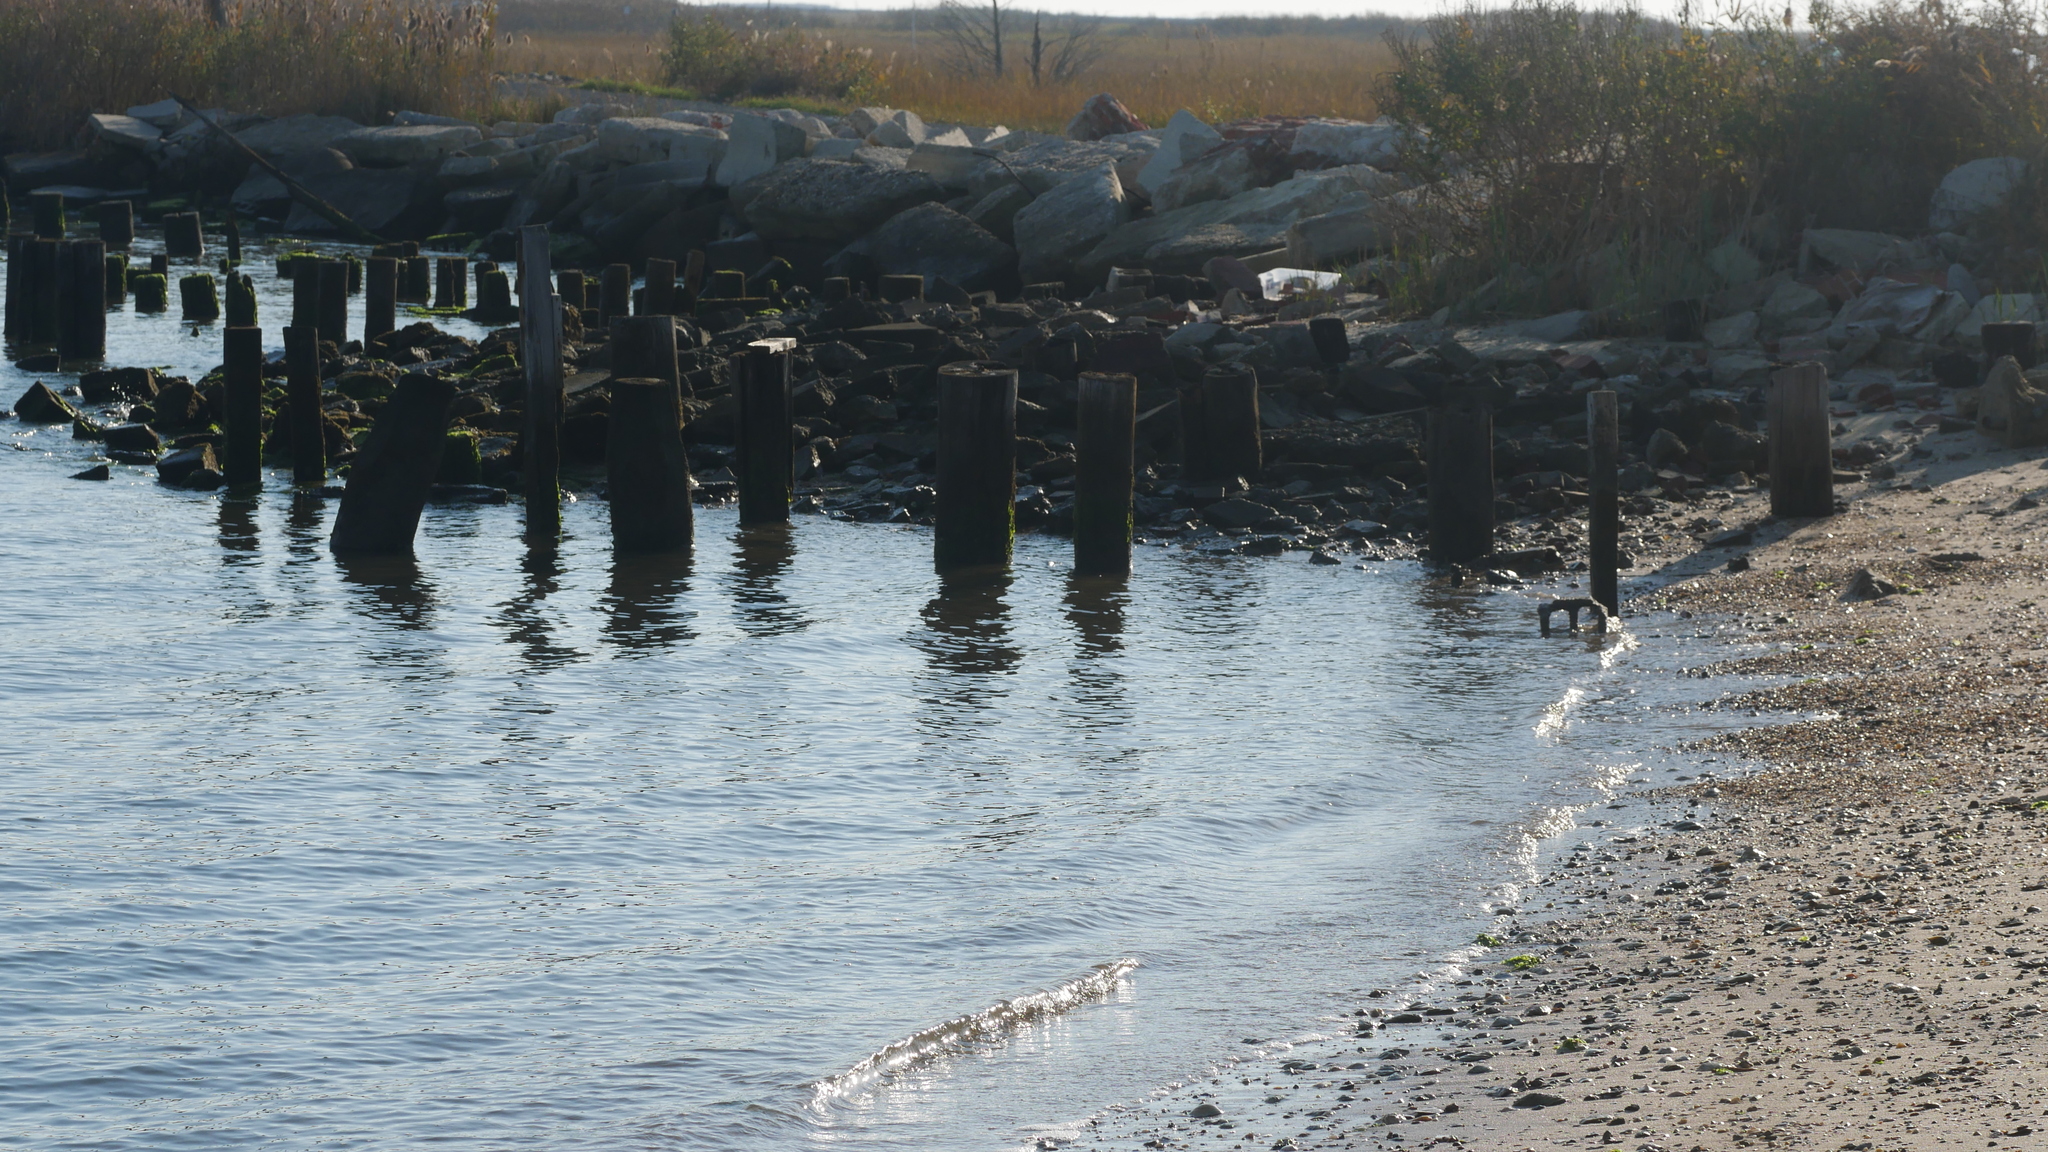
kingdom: Animalia
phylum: Arthropoda
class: Malacostraca
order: Isopoda
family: Detonidae
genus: Armadilloniscus
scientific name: Armadilloniscus ellipticus
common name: Pillbug
